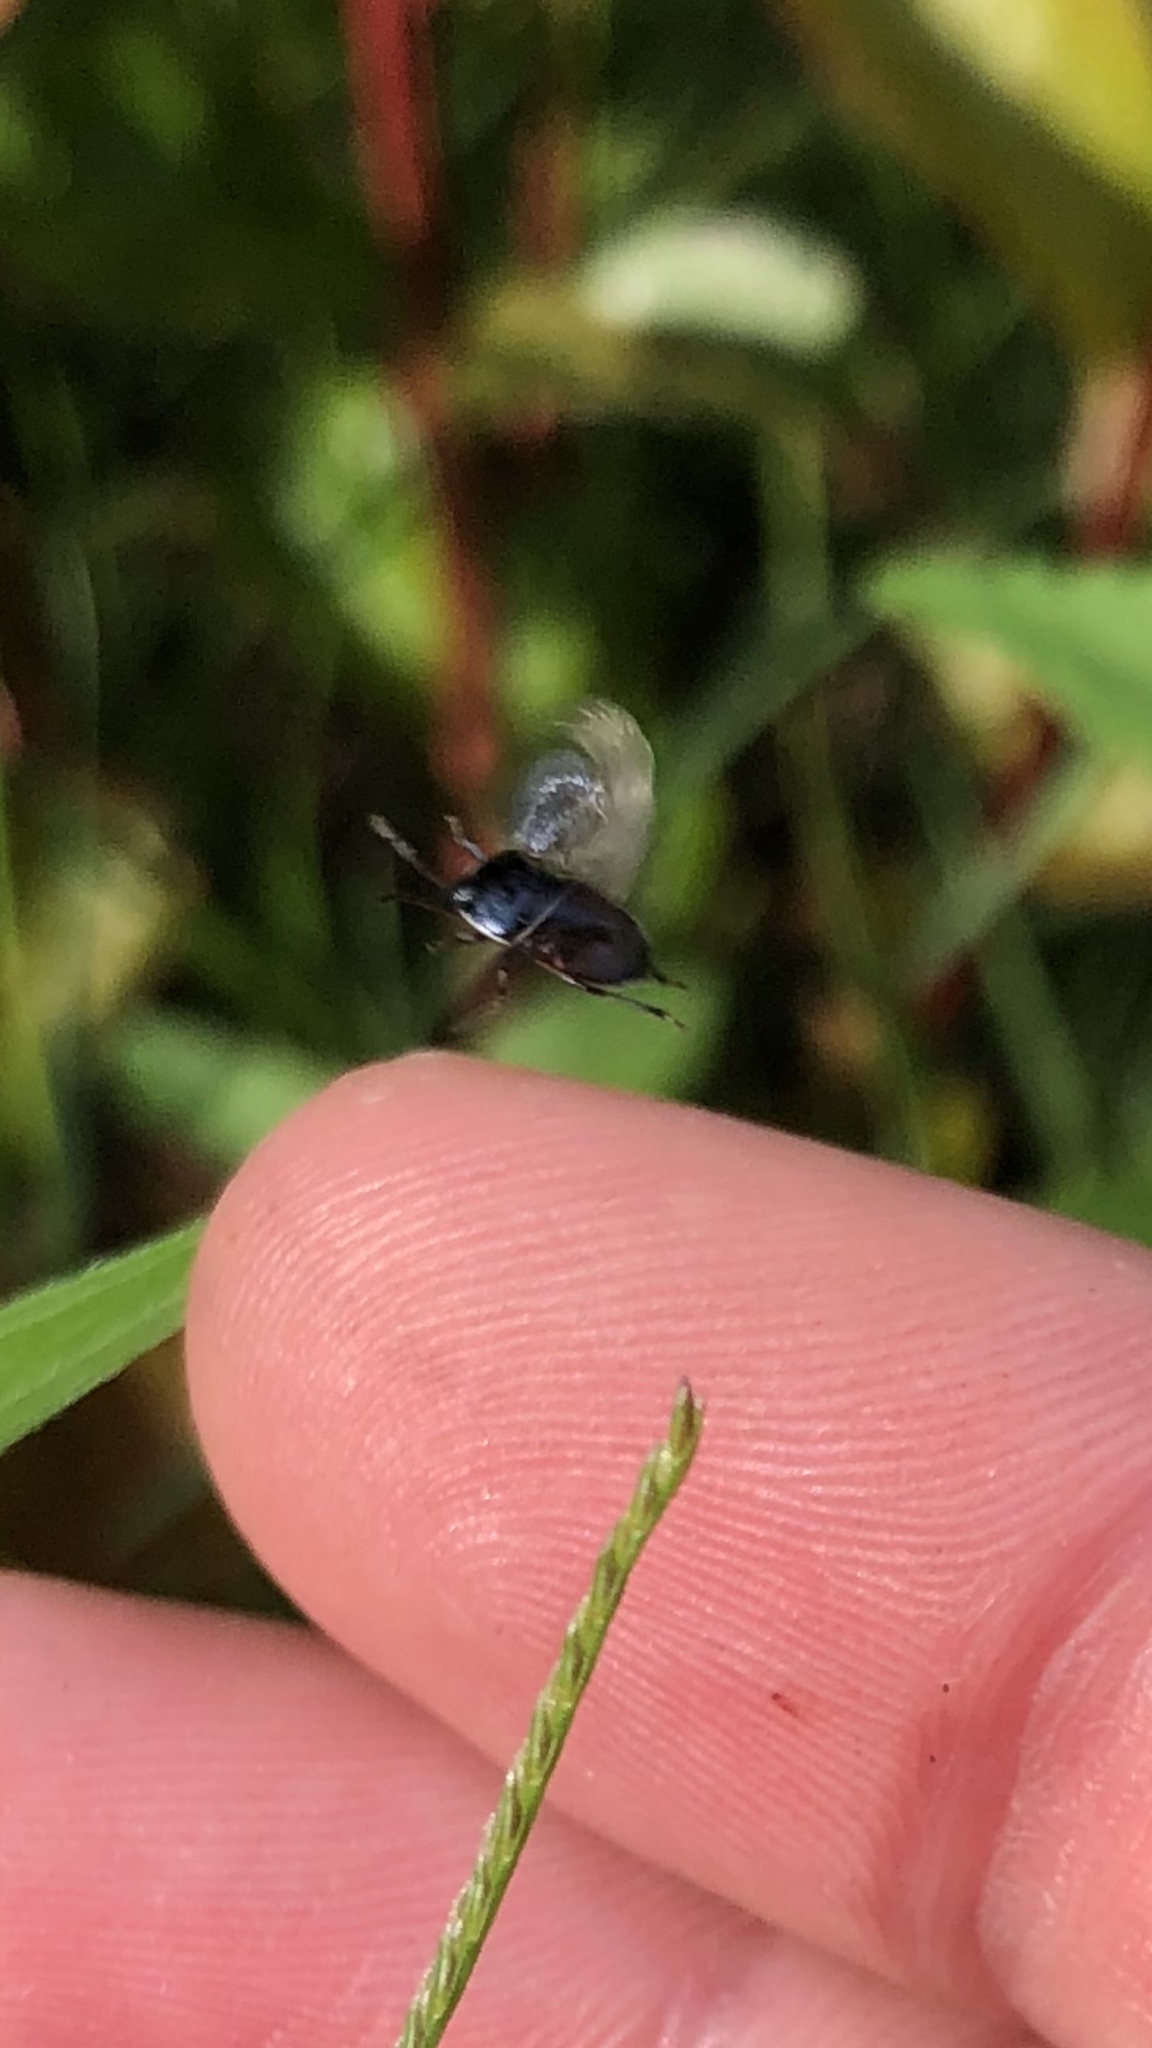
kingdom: Animalia
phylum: Arthropoda
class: Insecta
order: Hemiptera
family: Cydnidae
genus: Sehirus
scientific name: Sehirus cinctus
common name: White-margined burrower bug
